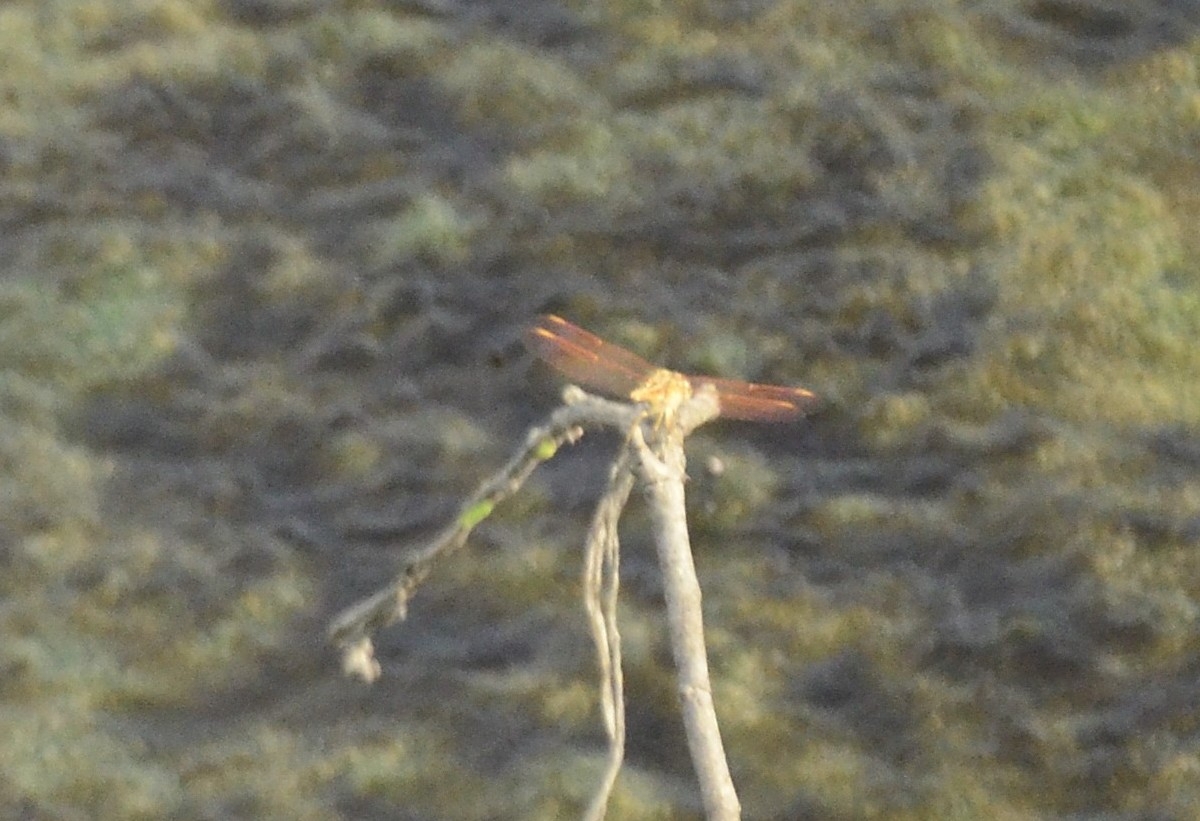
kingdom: Animalia
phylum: Arthropoda
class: Insecta
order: Odonata
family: Libellulidae
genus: Brachythemis
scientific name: Brachythemis contaminata
